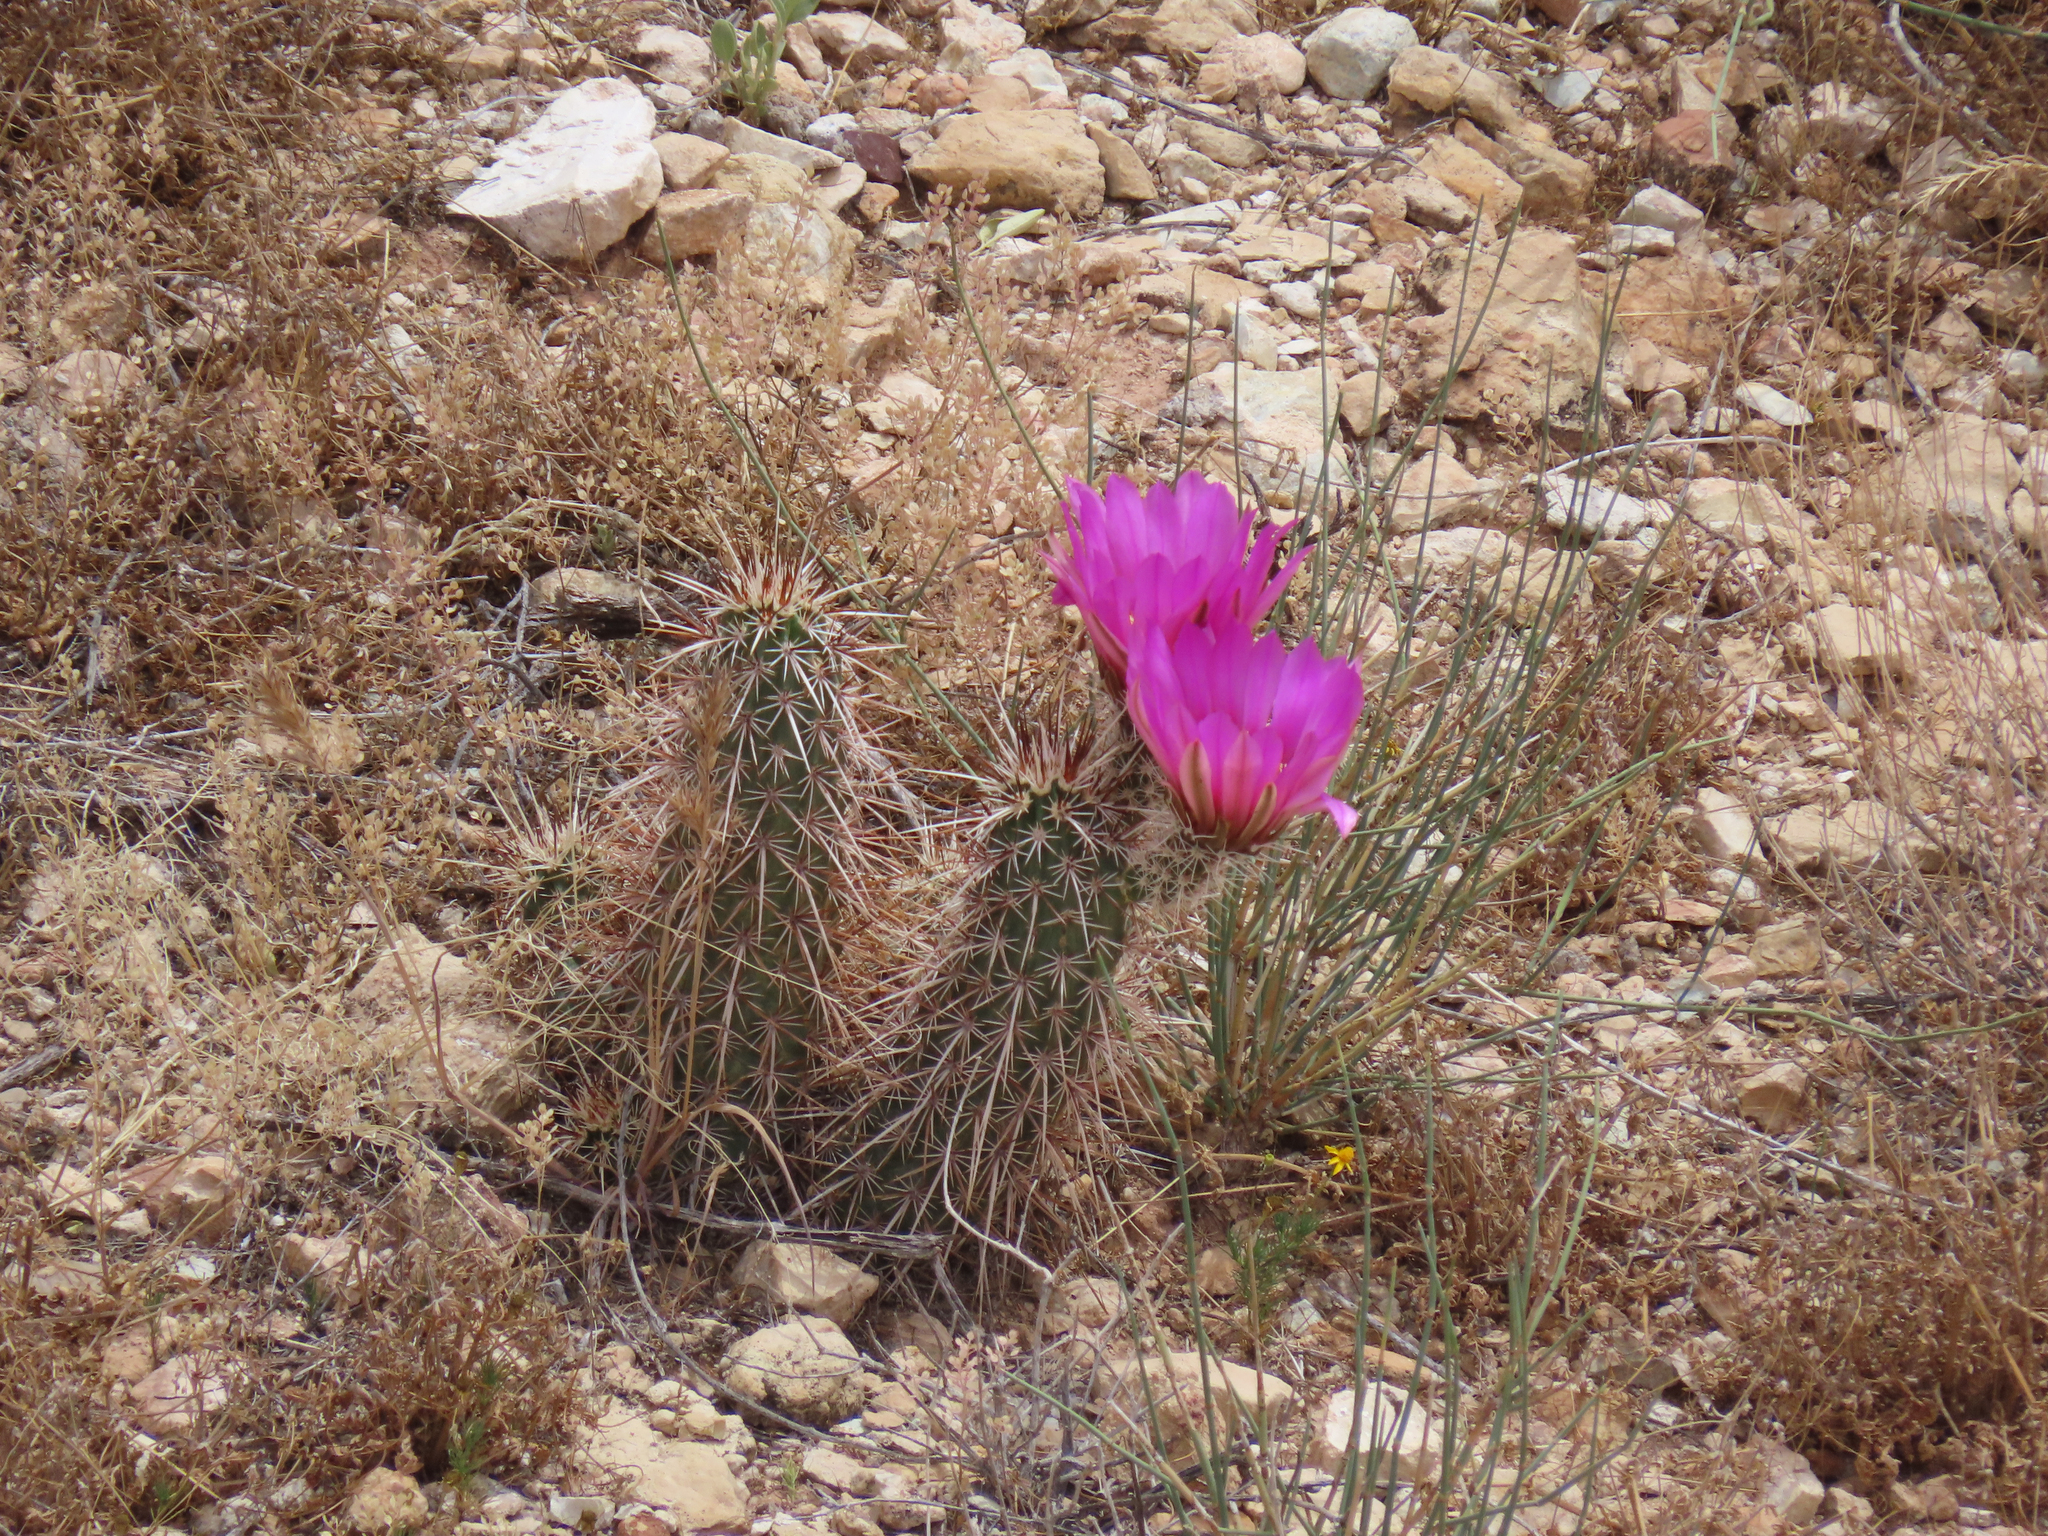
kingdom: Plantae
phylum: Tracheophyta
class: Magnoliopsida
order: Caryophyllales
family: Cactaceae
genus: Echinocereus
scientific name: Echinocereus engelmannii
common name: Engelmann's hedgehog cactus
